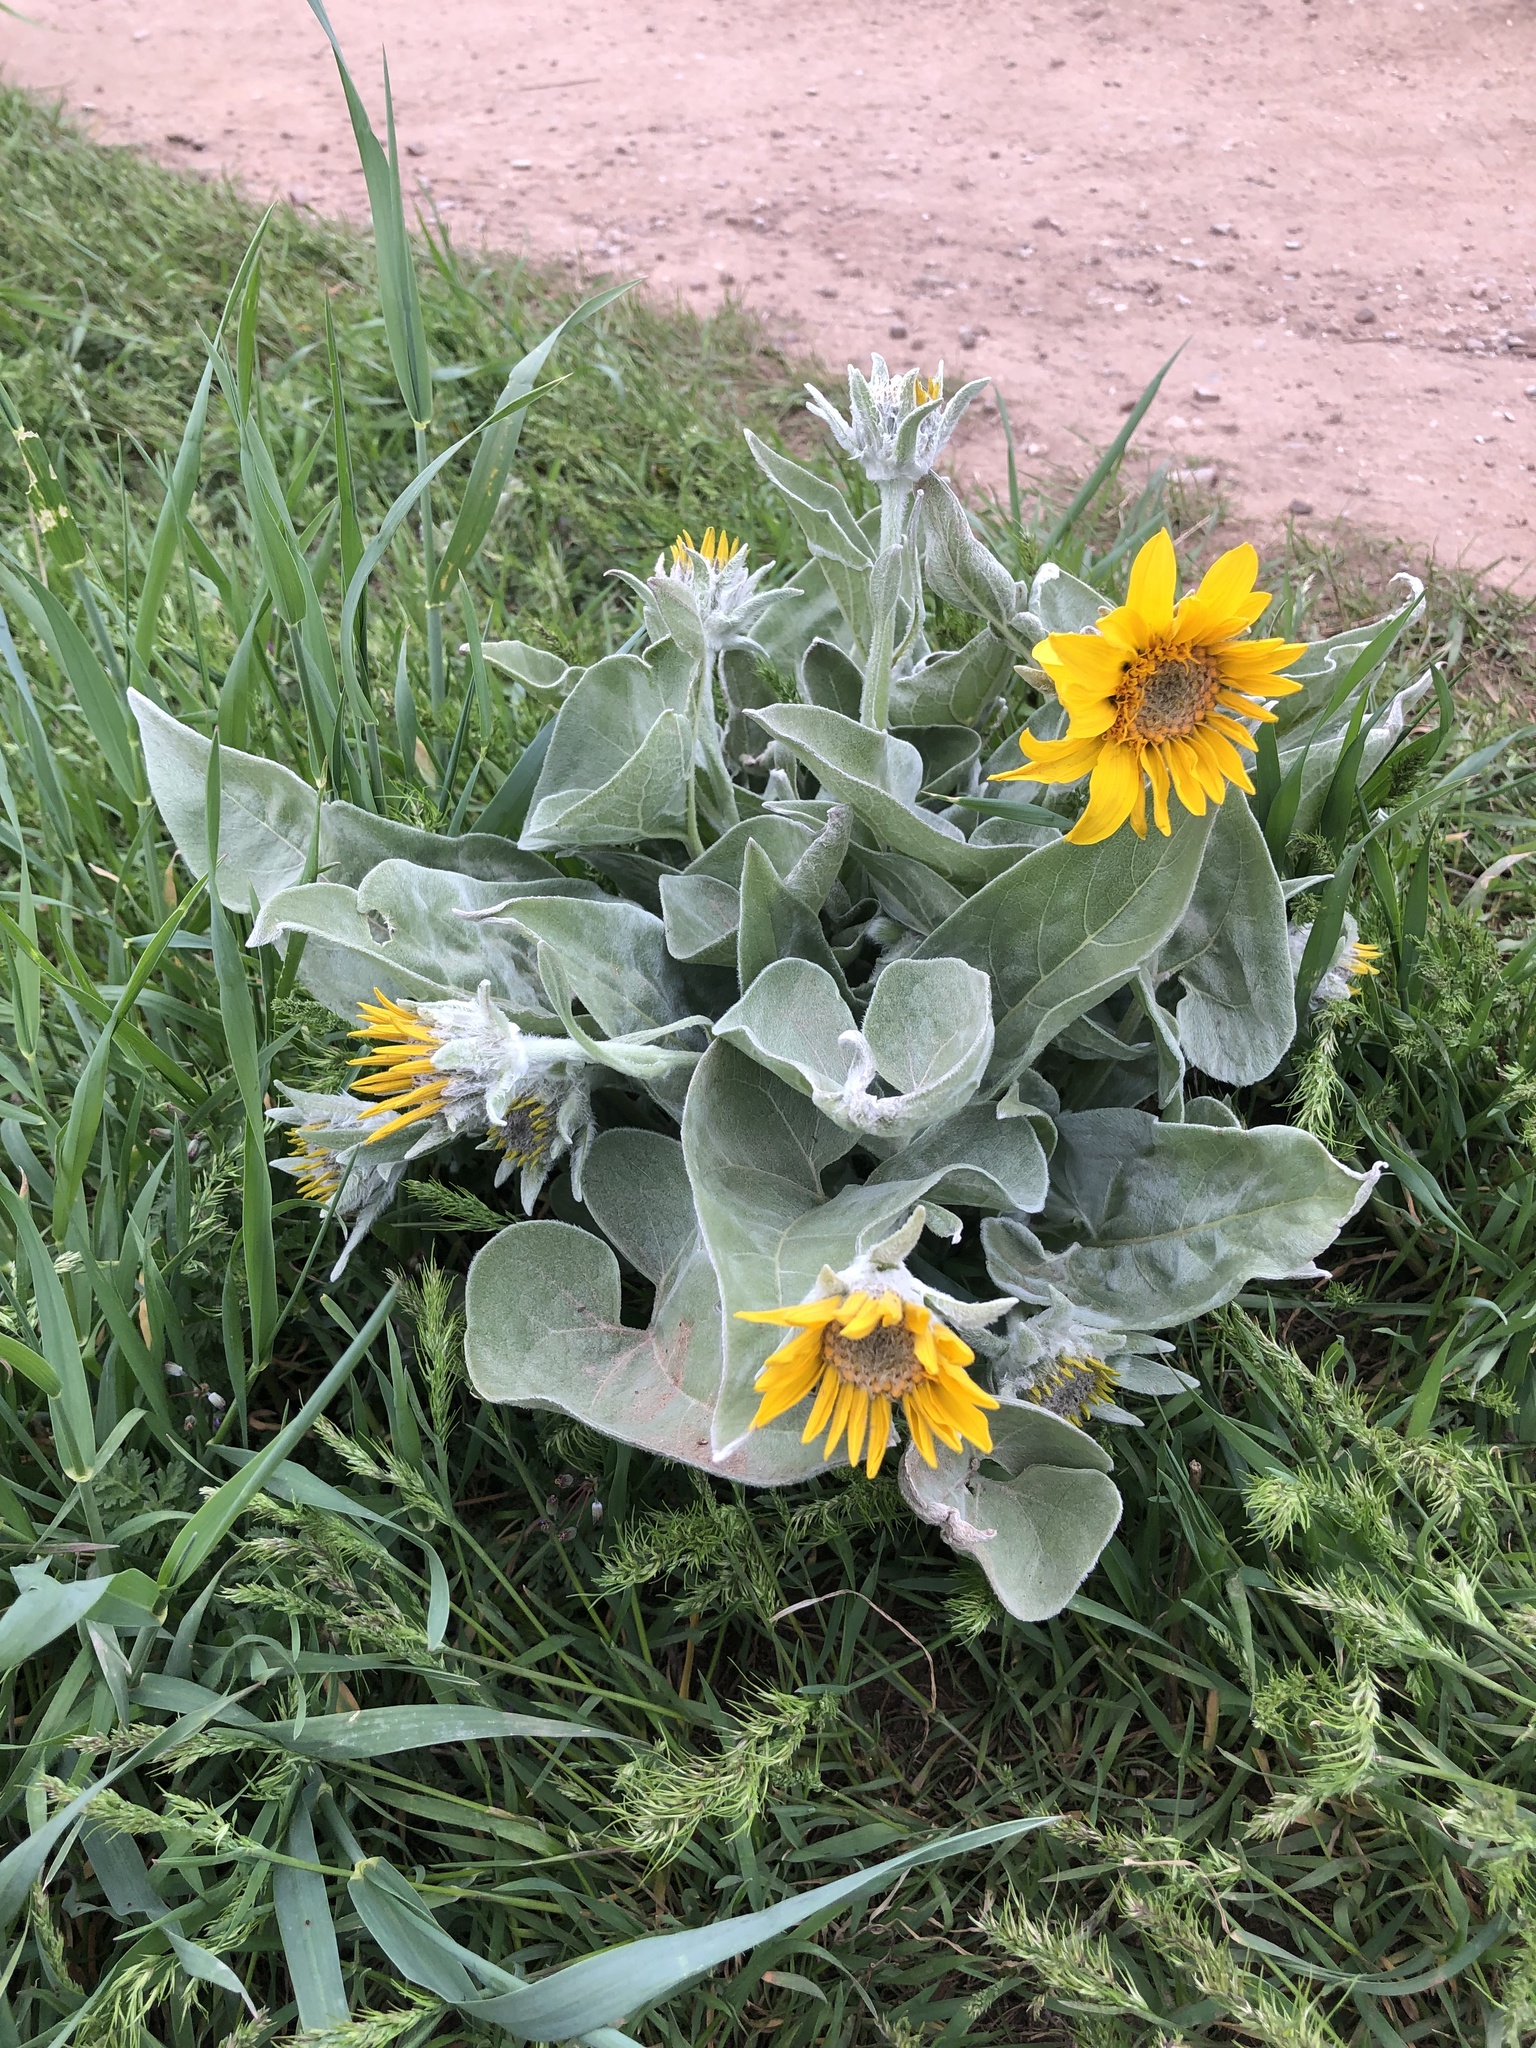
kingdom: Plantae
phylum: Tracheophyta
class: Magnoliopsida
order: Asterales
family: Asteraceae
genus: Wyethia
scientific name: Wyethia sagittata
